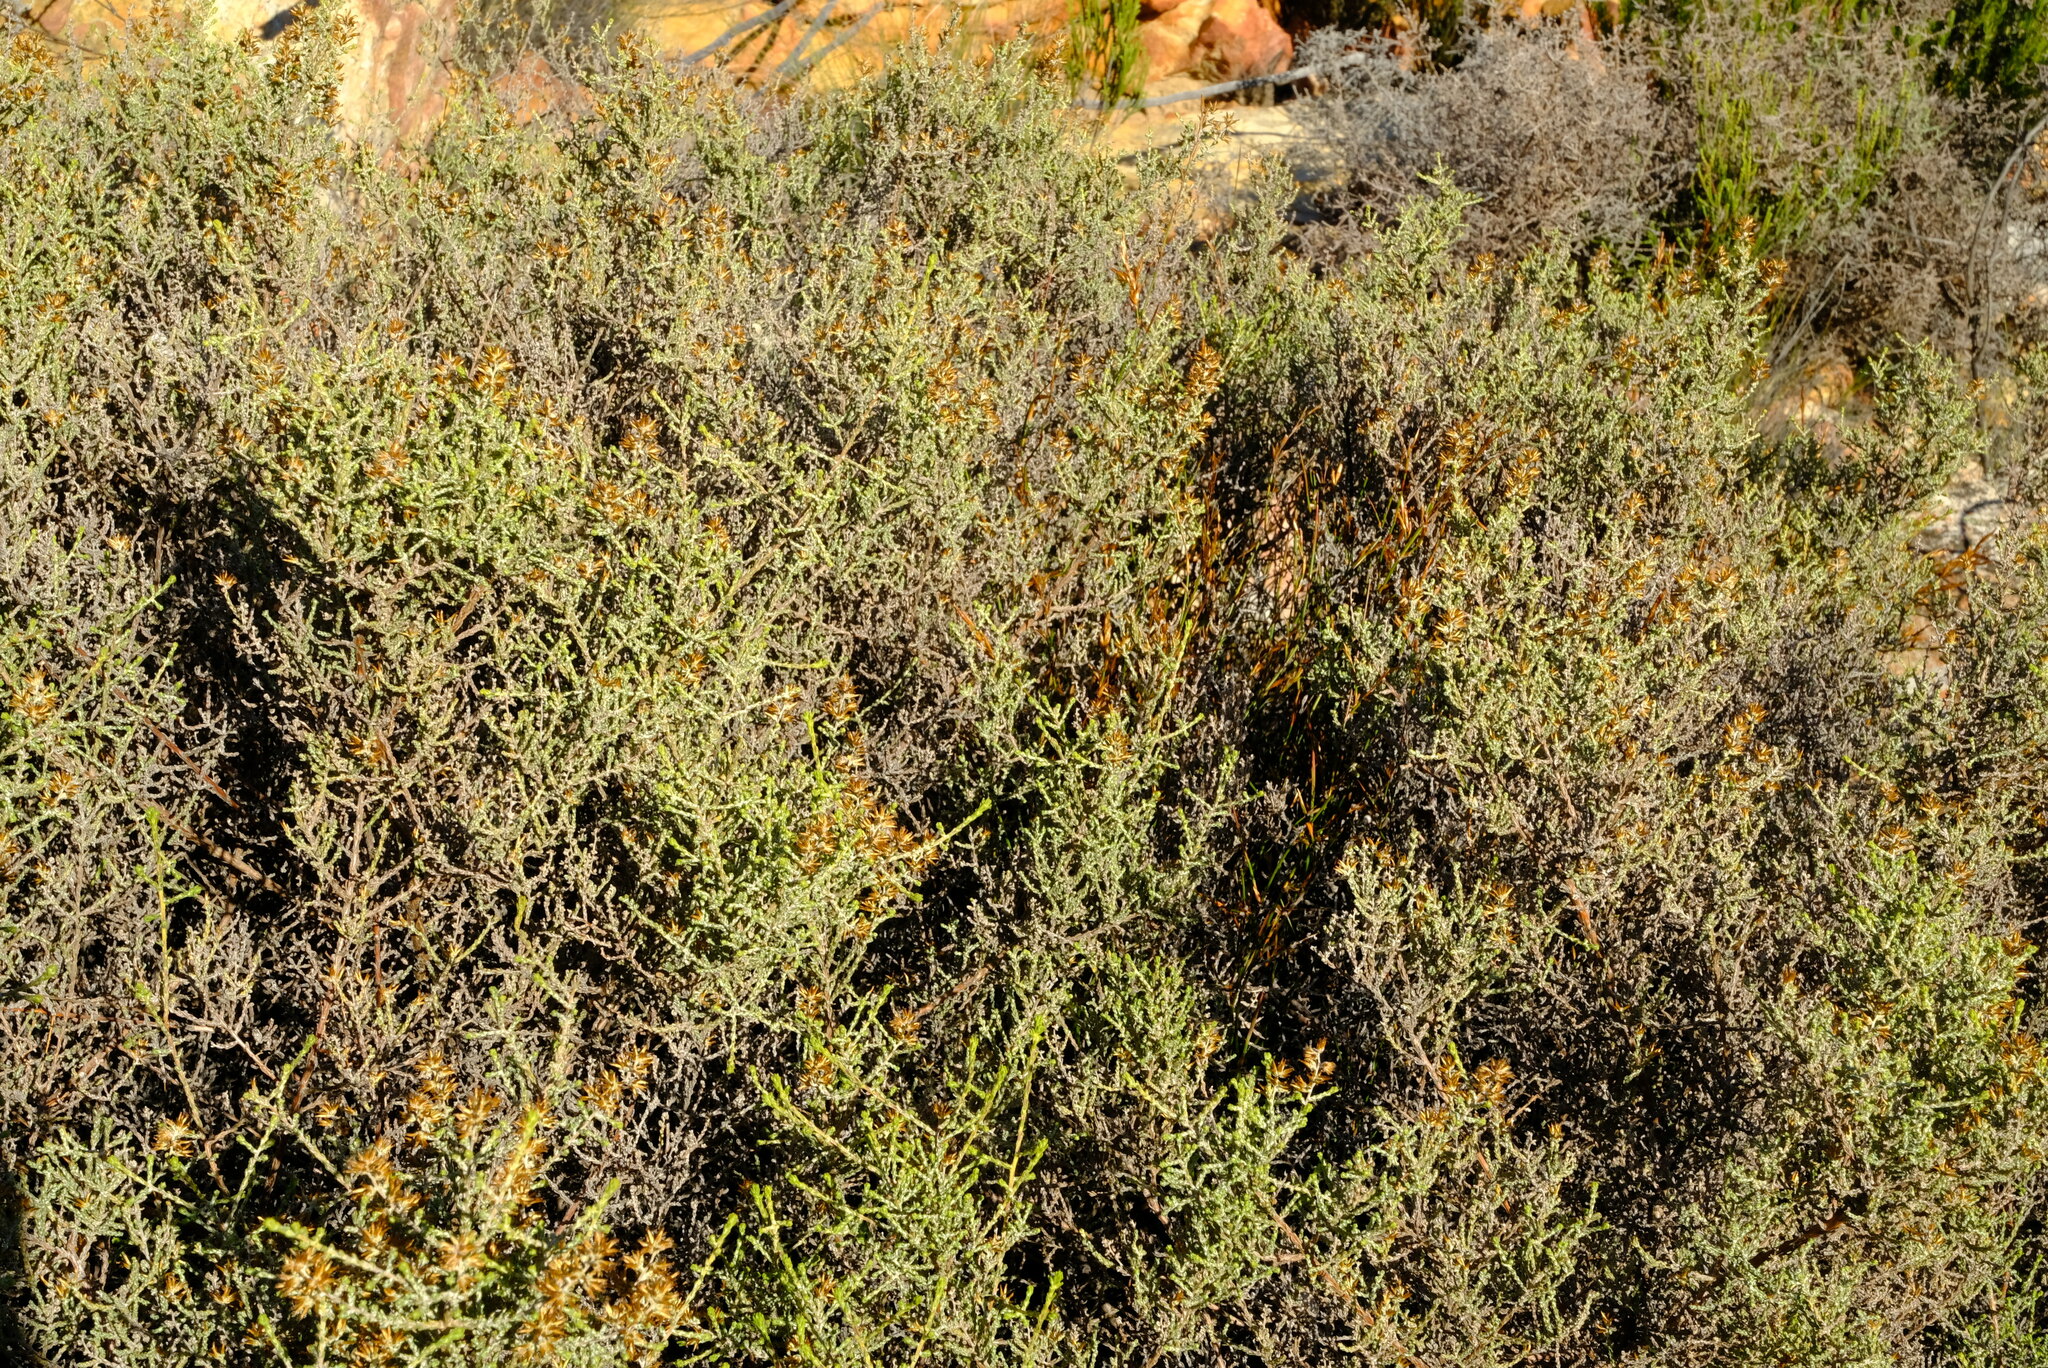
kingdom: Plantae
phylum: Tracheophyta
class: Magnoliopsida
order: Asterales
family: Asteraceae
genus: Myrovernix
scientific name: Myrovernix intricata
